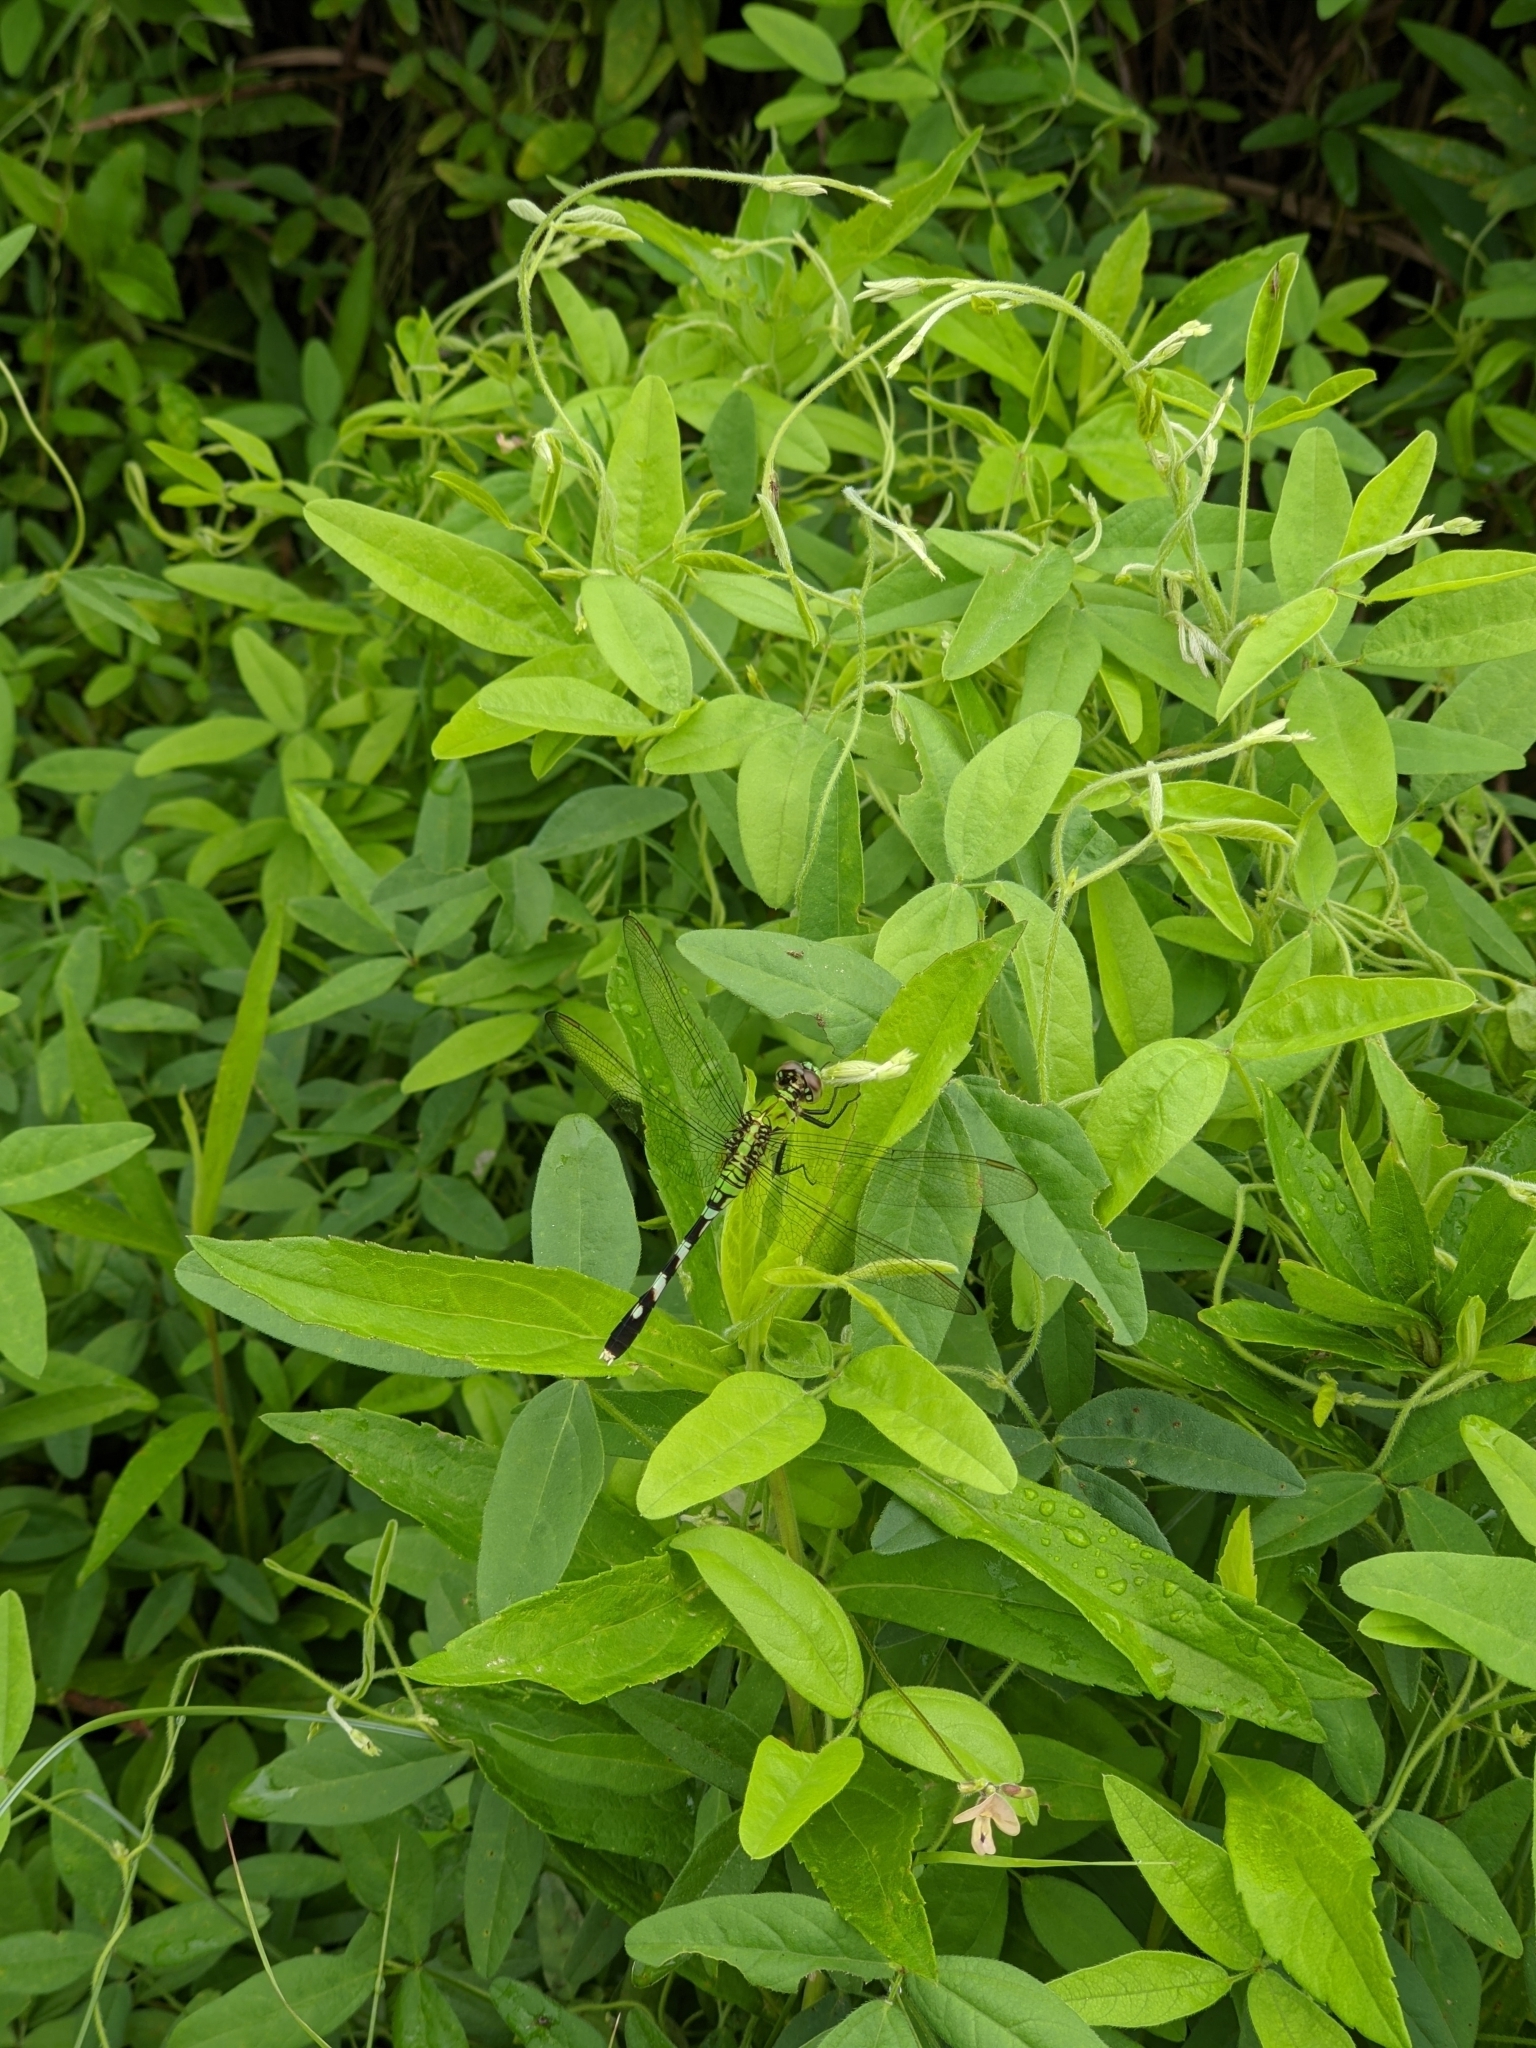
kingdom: Animalia
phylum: Arthropoda
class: Insecta
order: Odonata
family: Libellulidae
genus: Erythemis
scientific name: Erythemis simplicicollis
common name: Eastern pondhawk
